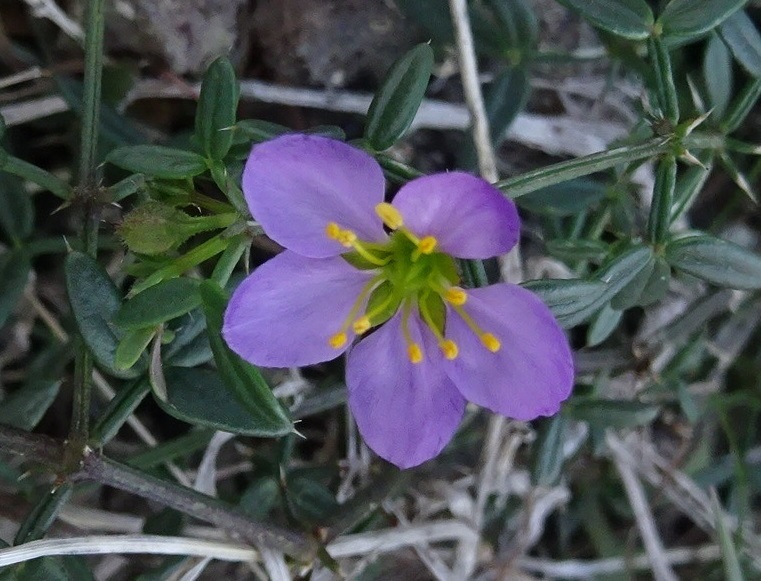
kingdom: Plantae
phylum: Tracheophyta
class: Magnoliopsida
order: Zygophyllales
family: Zygophyllaceae
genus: Fagonia
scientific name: Fagonia cretica
